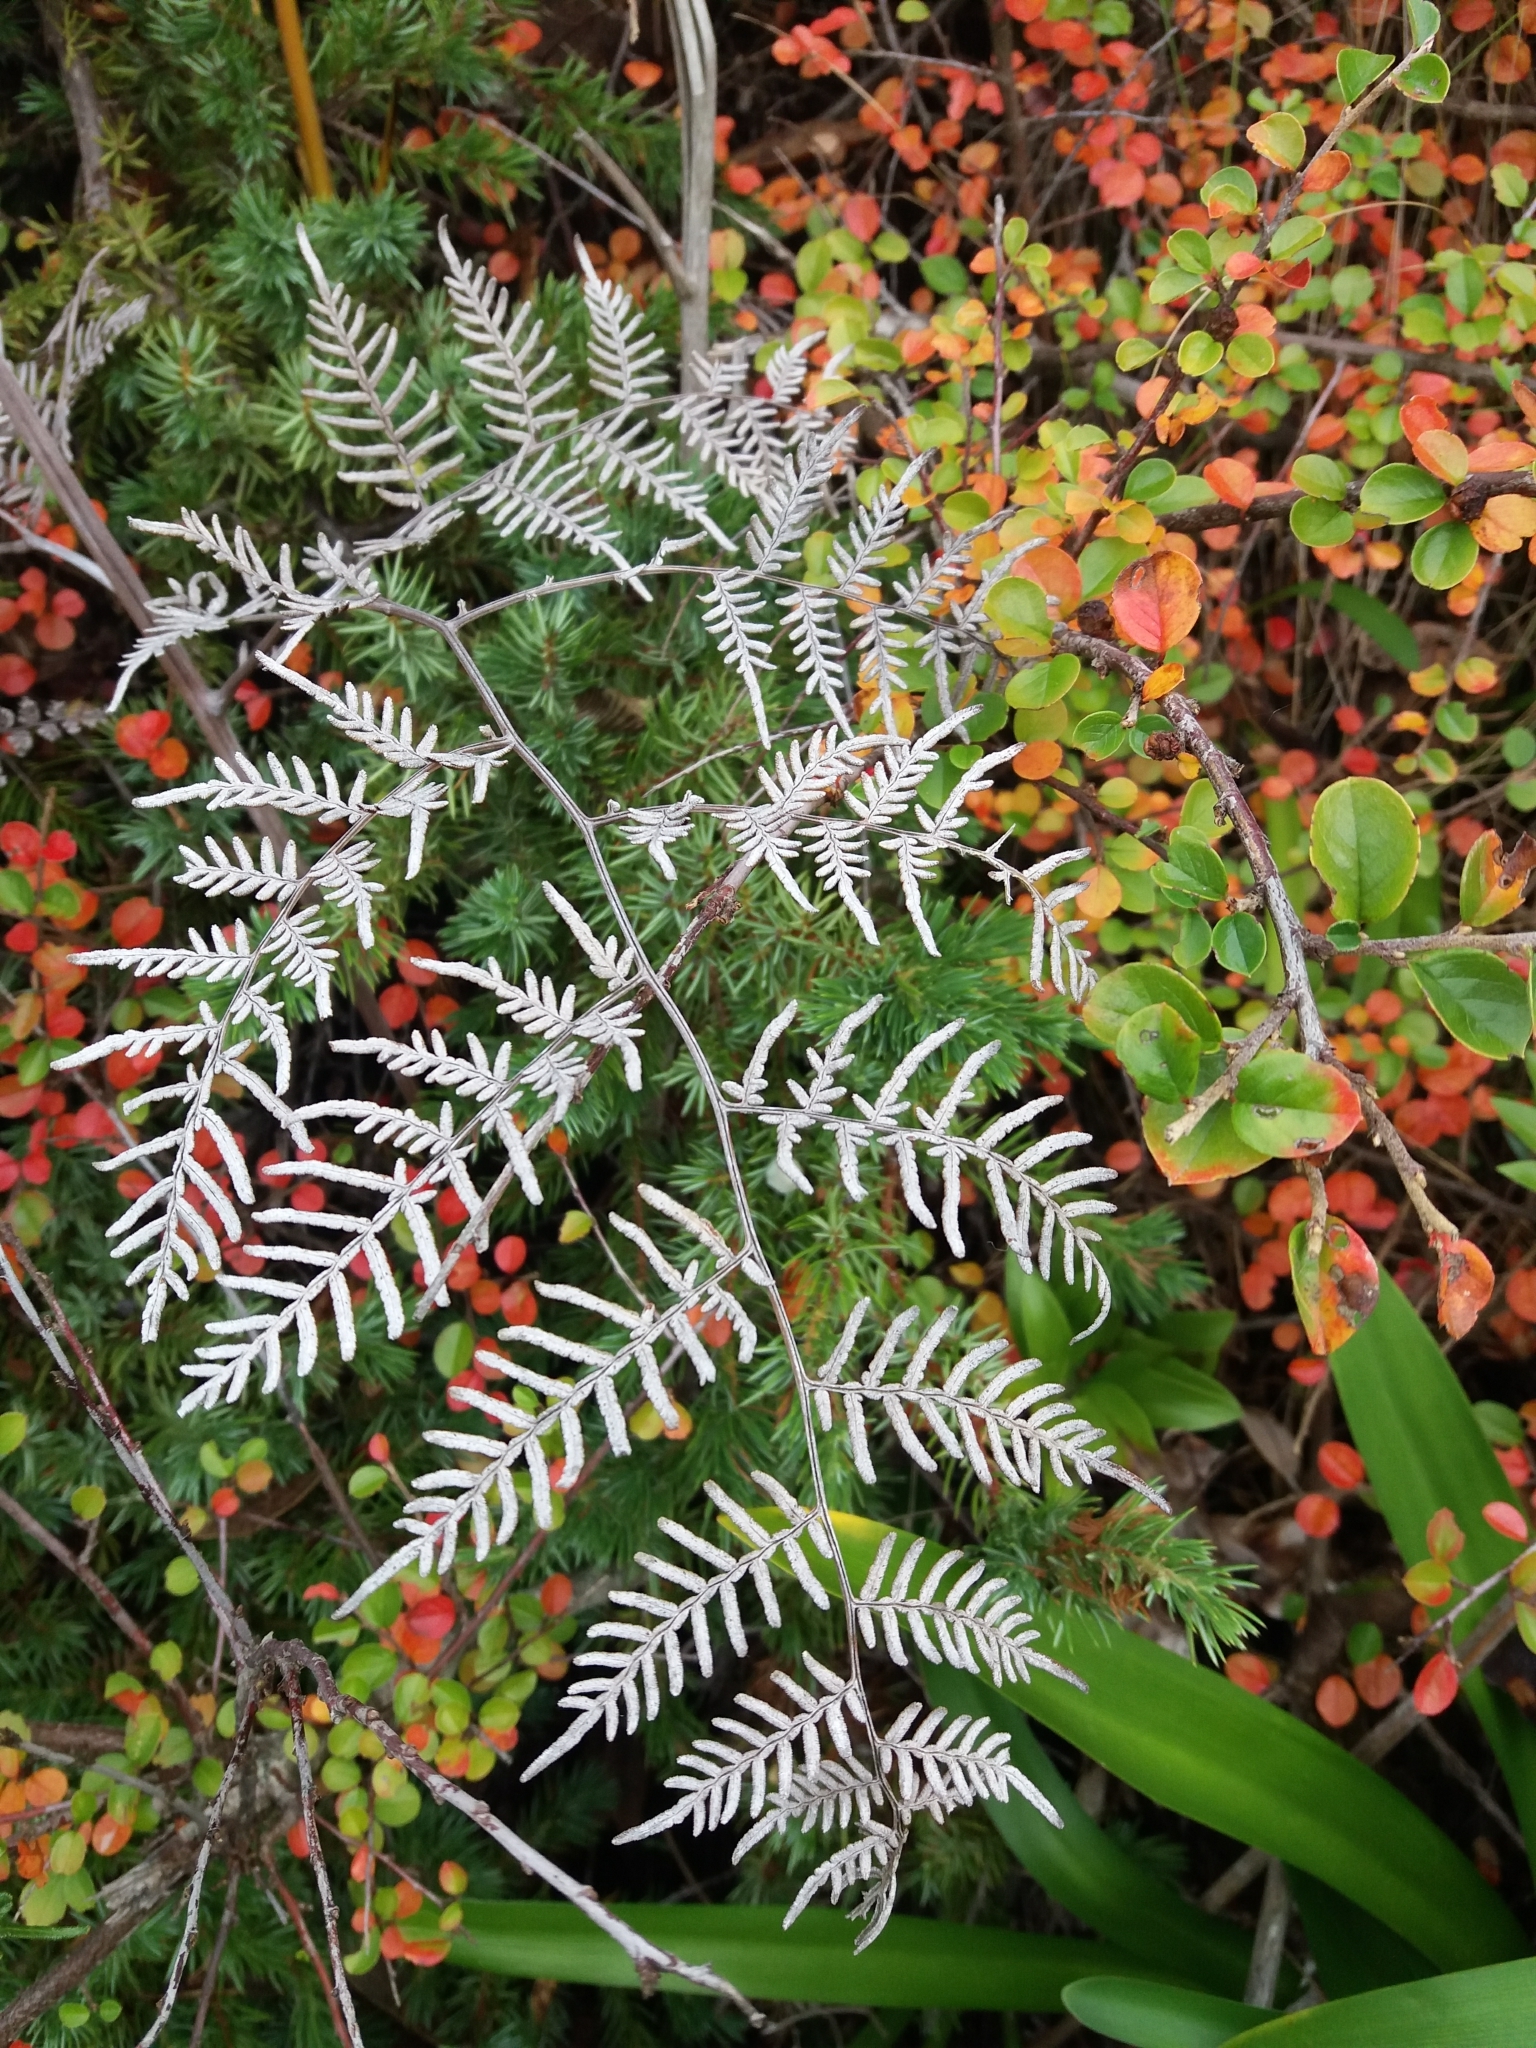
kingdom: Plantae
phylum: Tracheophyta
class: Polypodiopsida
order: Polypodiales
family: Dennstaedtiaceae
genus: Pteridium
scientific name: Pteridium esculentum
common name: Bracken fern
